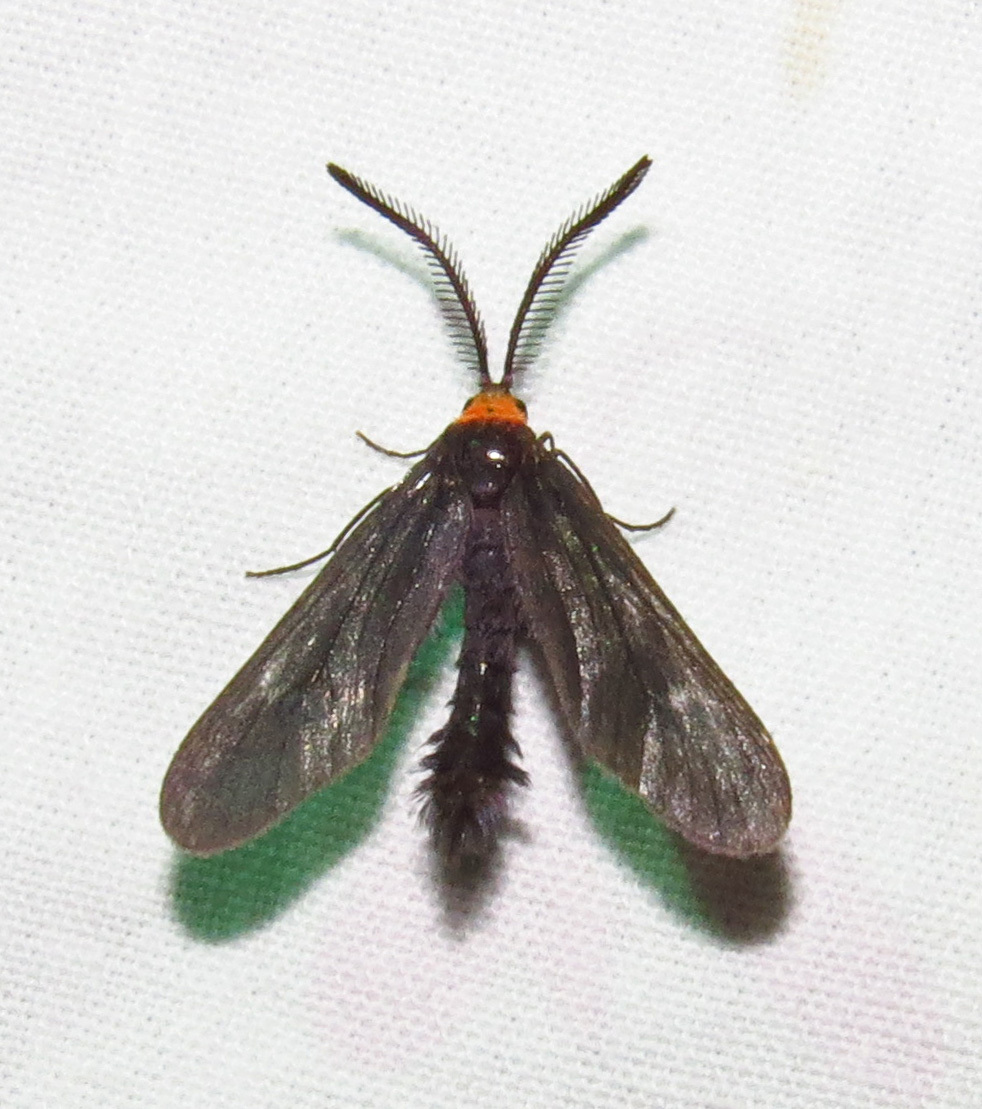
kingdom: Animalia
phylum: Arthropoda
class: Insecta
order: Lepidoptera
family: Zygaenidae
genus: Harrisina
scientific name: Harrisina americana
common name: Grapeleaf skeletonizer moth
